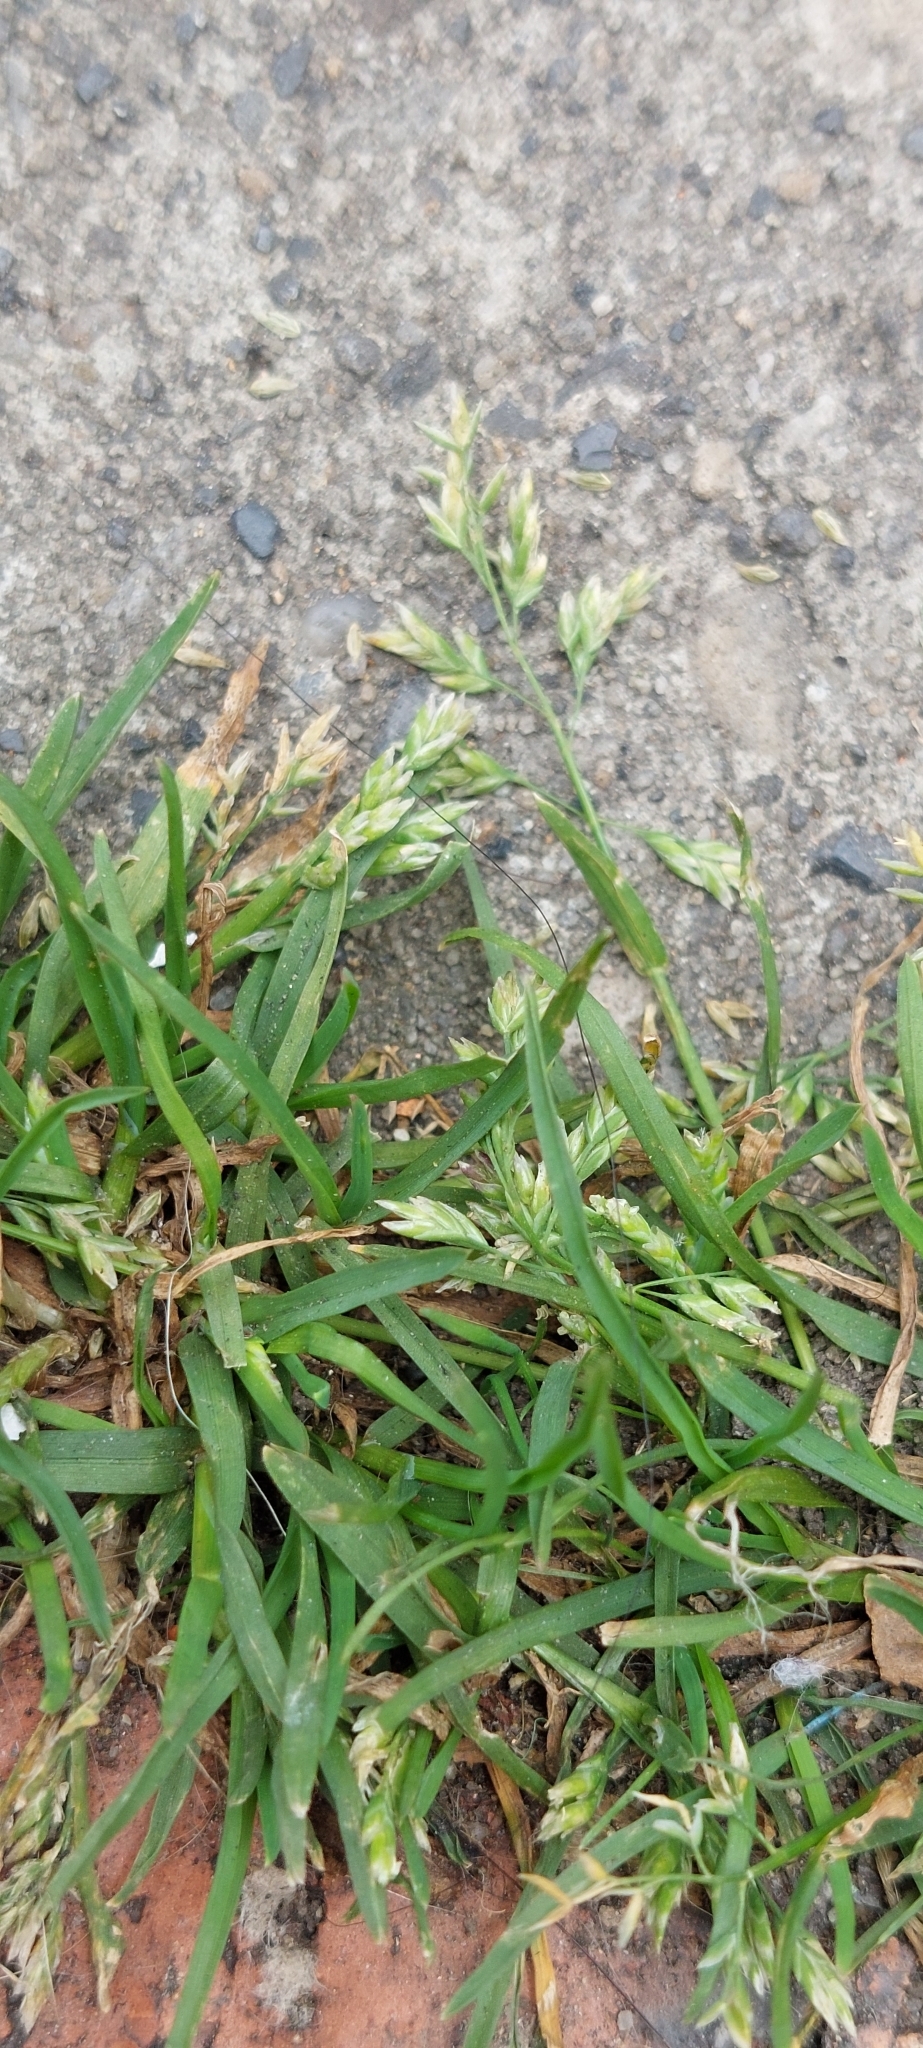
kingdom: Plantae
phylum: Tracheophyta
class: Liliopsida
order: Poales
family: Poaceae
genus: Poa
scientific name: Poa annua
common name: Annual bluegrass
